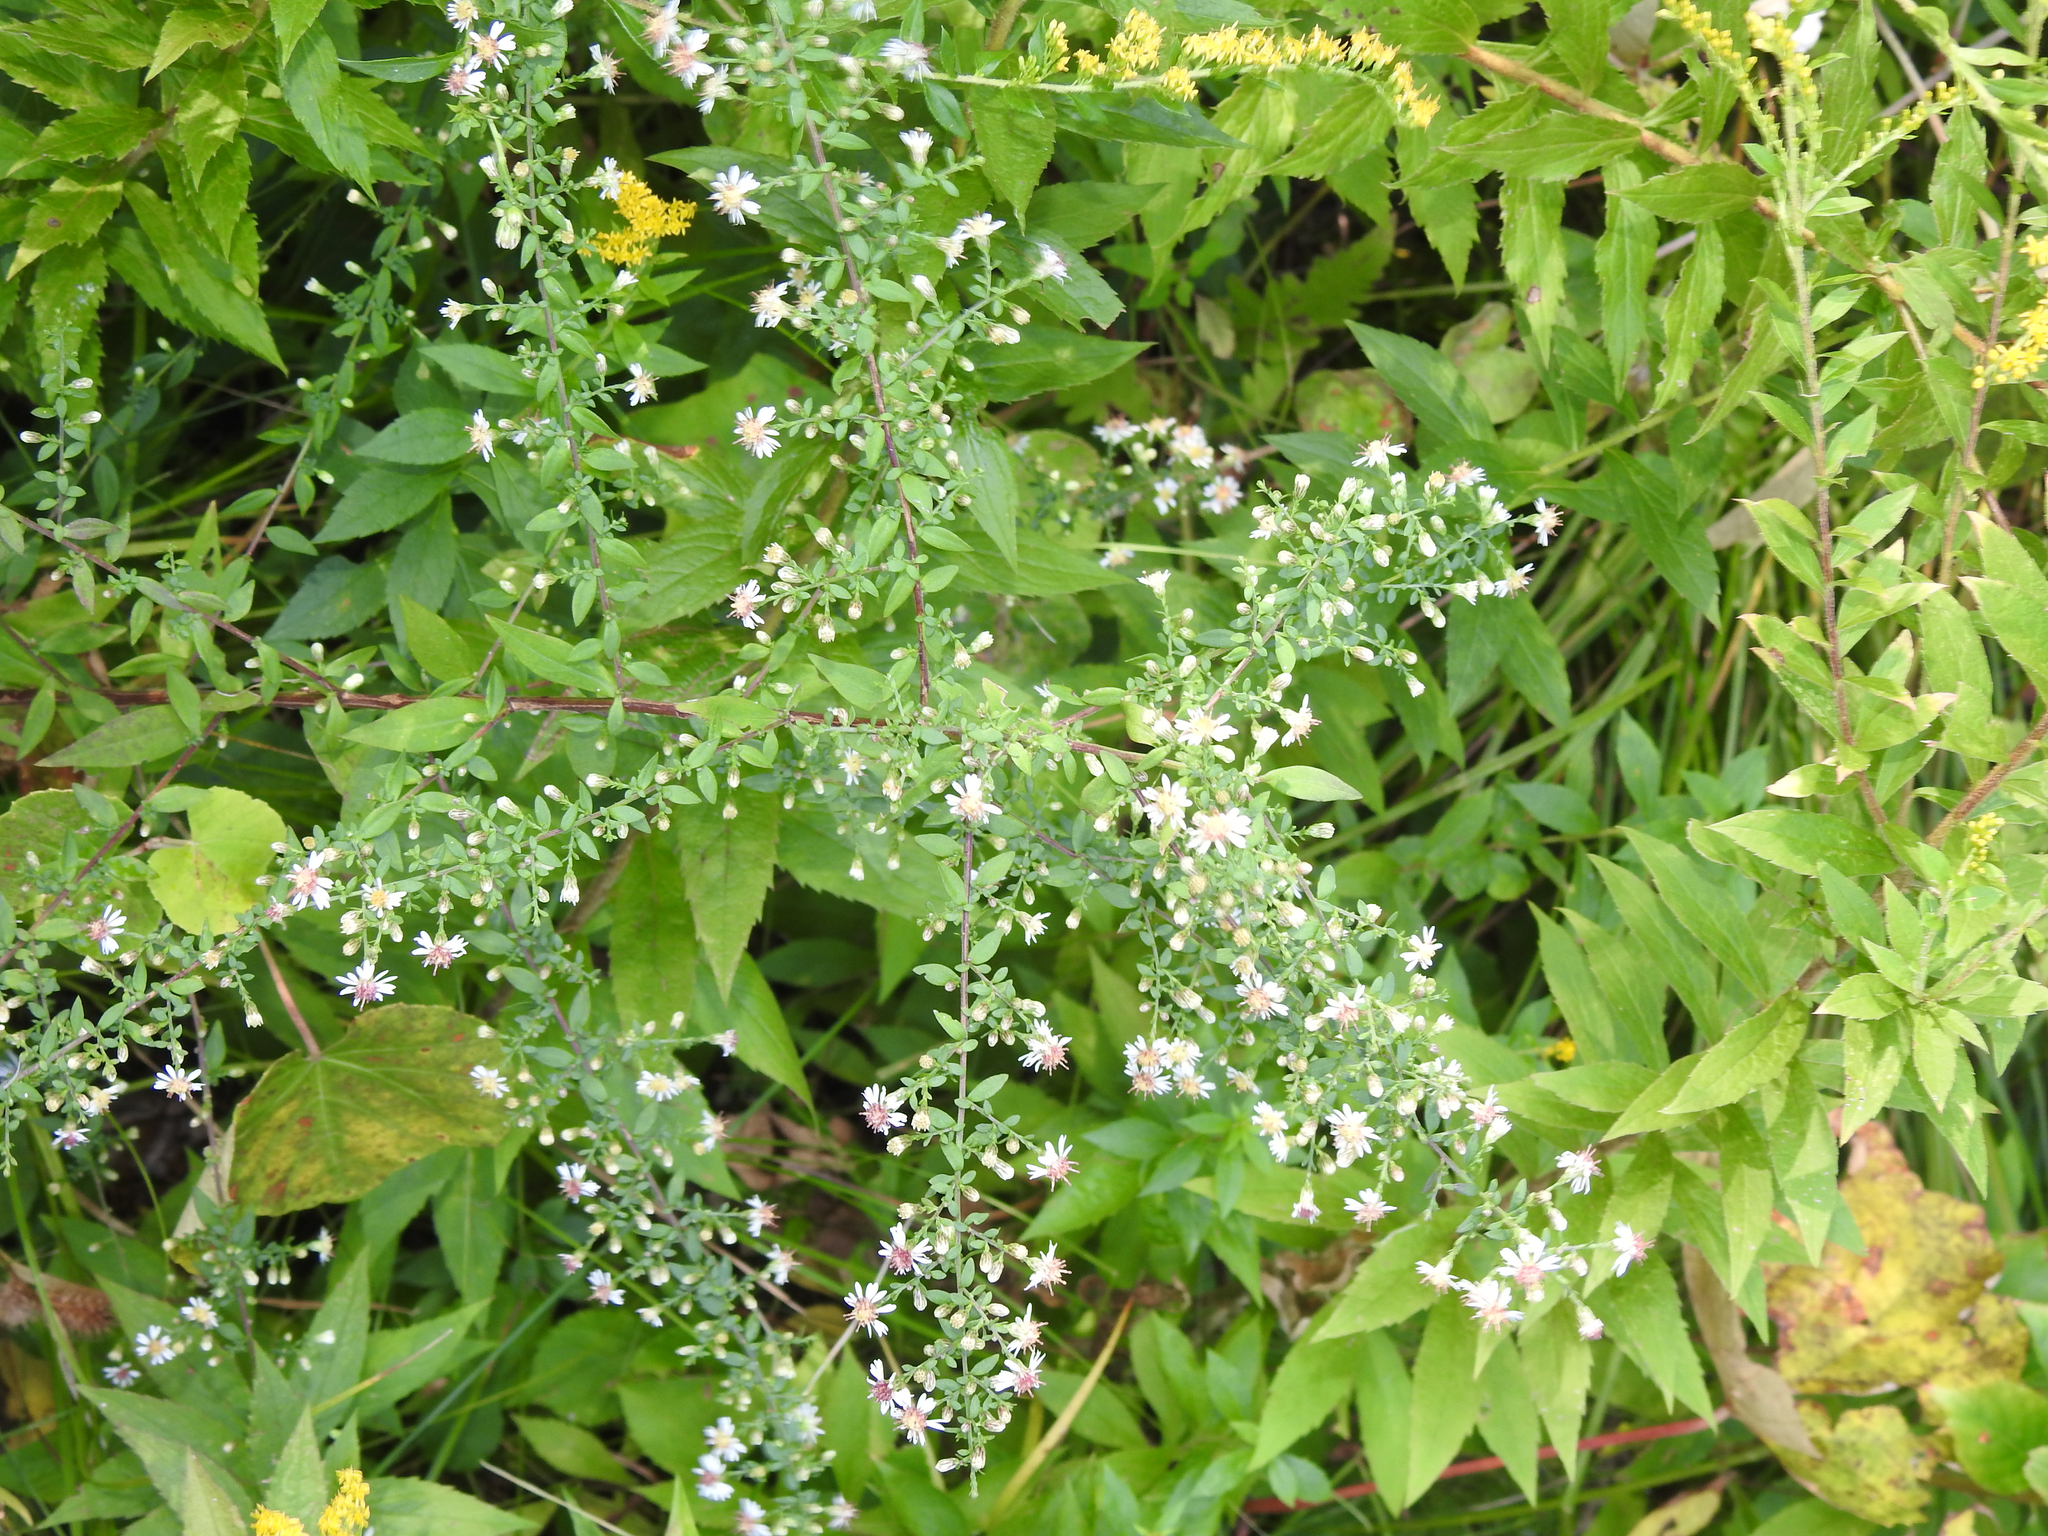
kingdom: Plantae
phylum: Tracheophyta
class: Magnoliopsida
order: Asterales
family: Asteraceae
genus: Symphyotrichum
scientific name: Symphyotrichum lateriflorum
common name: Calico aster
